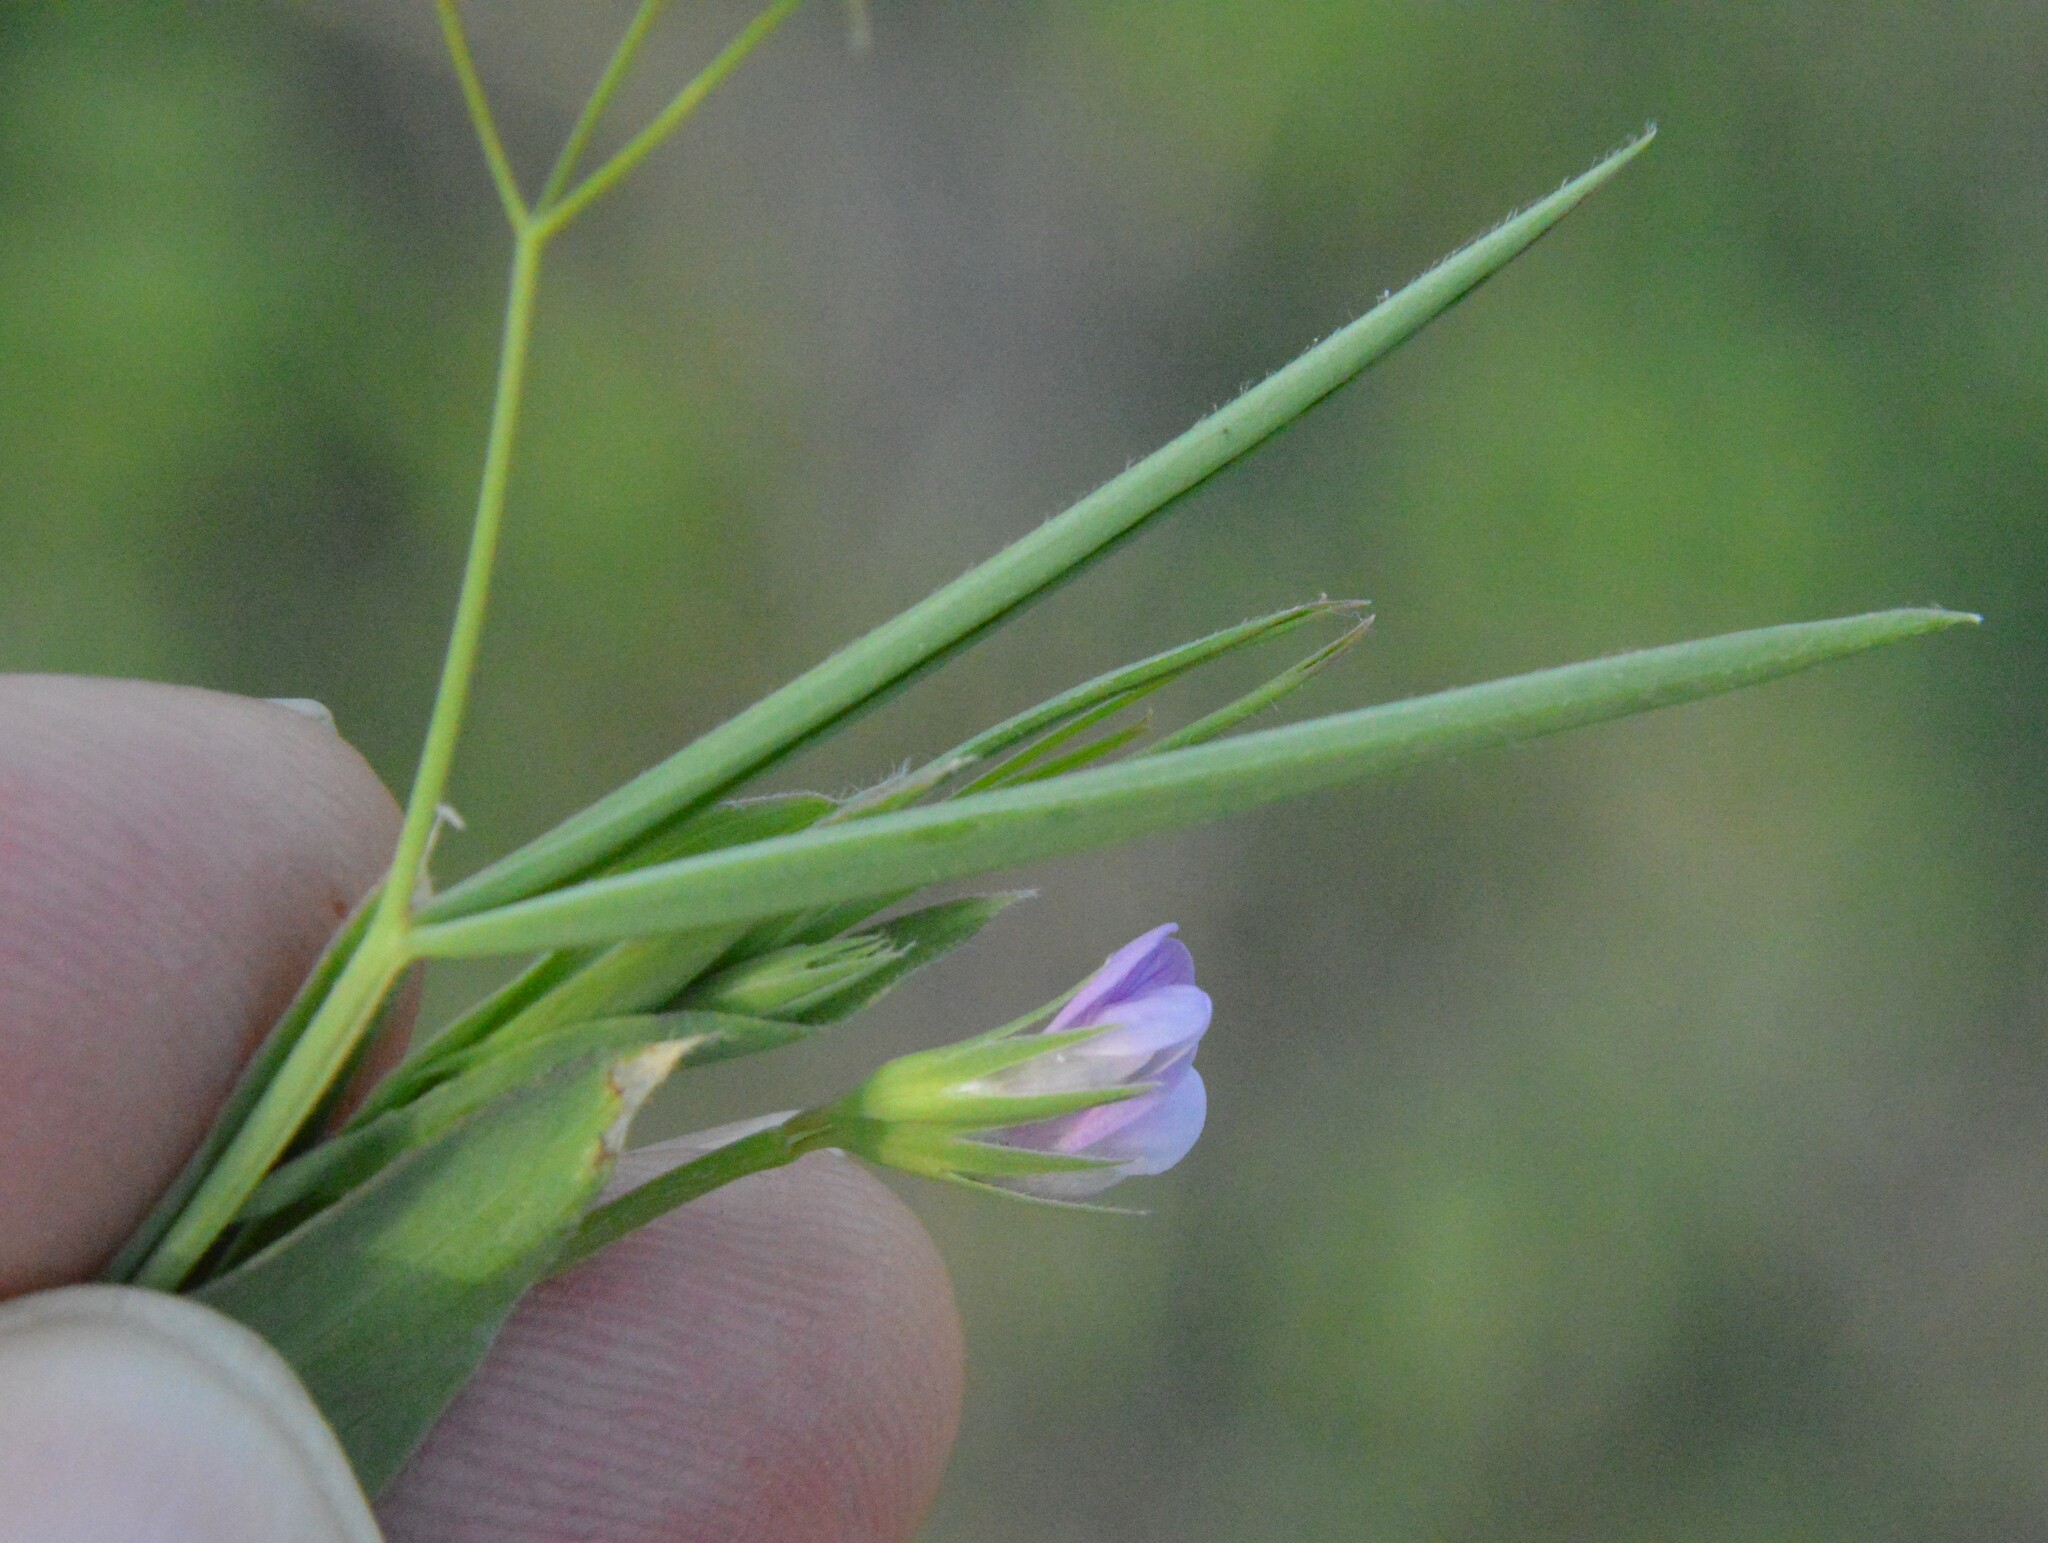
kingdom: Plantae
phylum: Tracheophyta
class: Magnoliopsida
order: Fabales
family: Fabaceae
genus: Lathyrus
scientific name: Lathyrus pusillus
